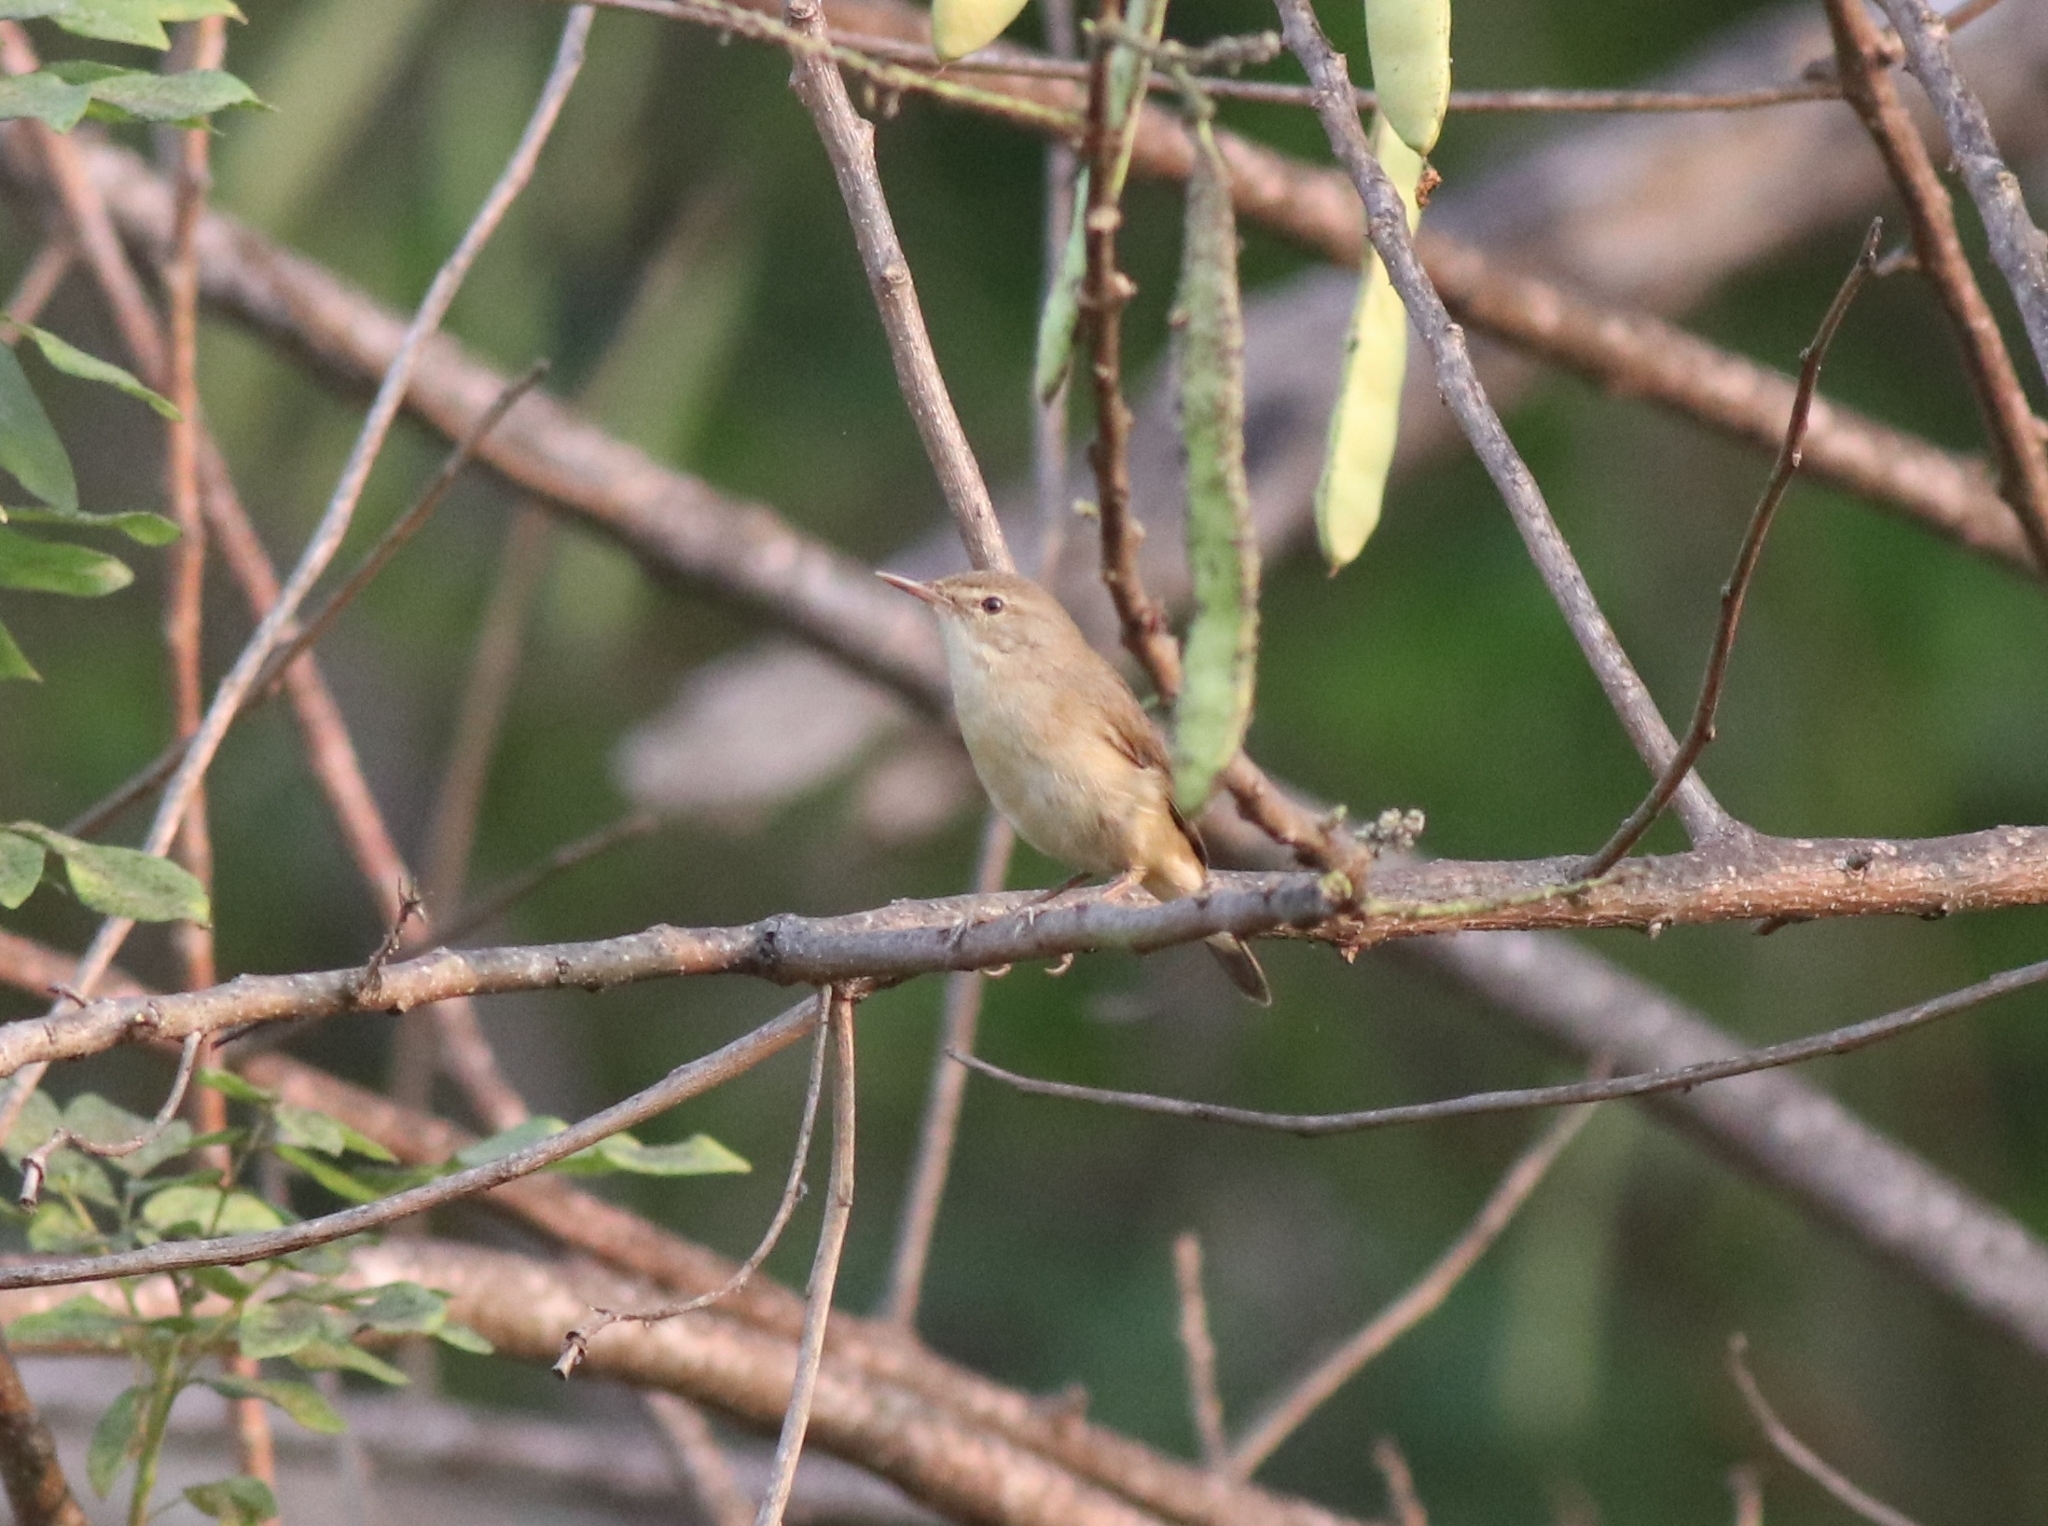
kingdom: Animalia
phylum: Chordata
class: Aves
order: Passeriformes
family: Acrocephalidae
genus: Acrocephalus
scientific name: Acrocephalus dumetorum
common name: Blyth's reed warbler
